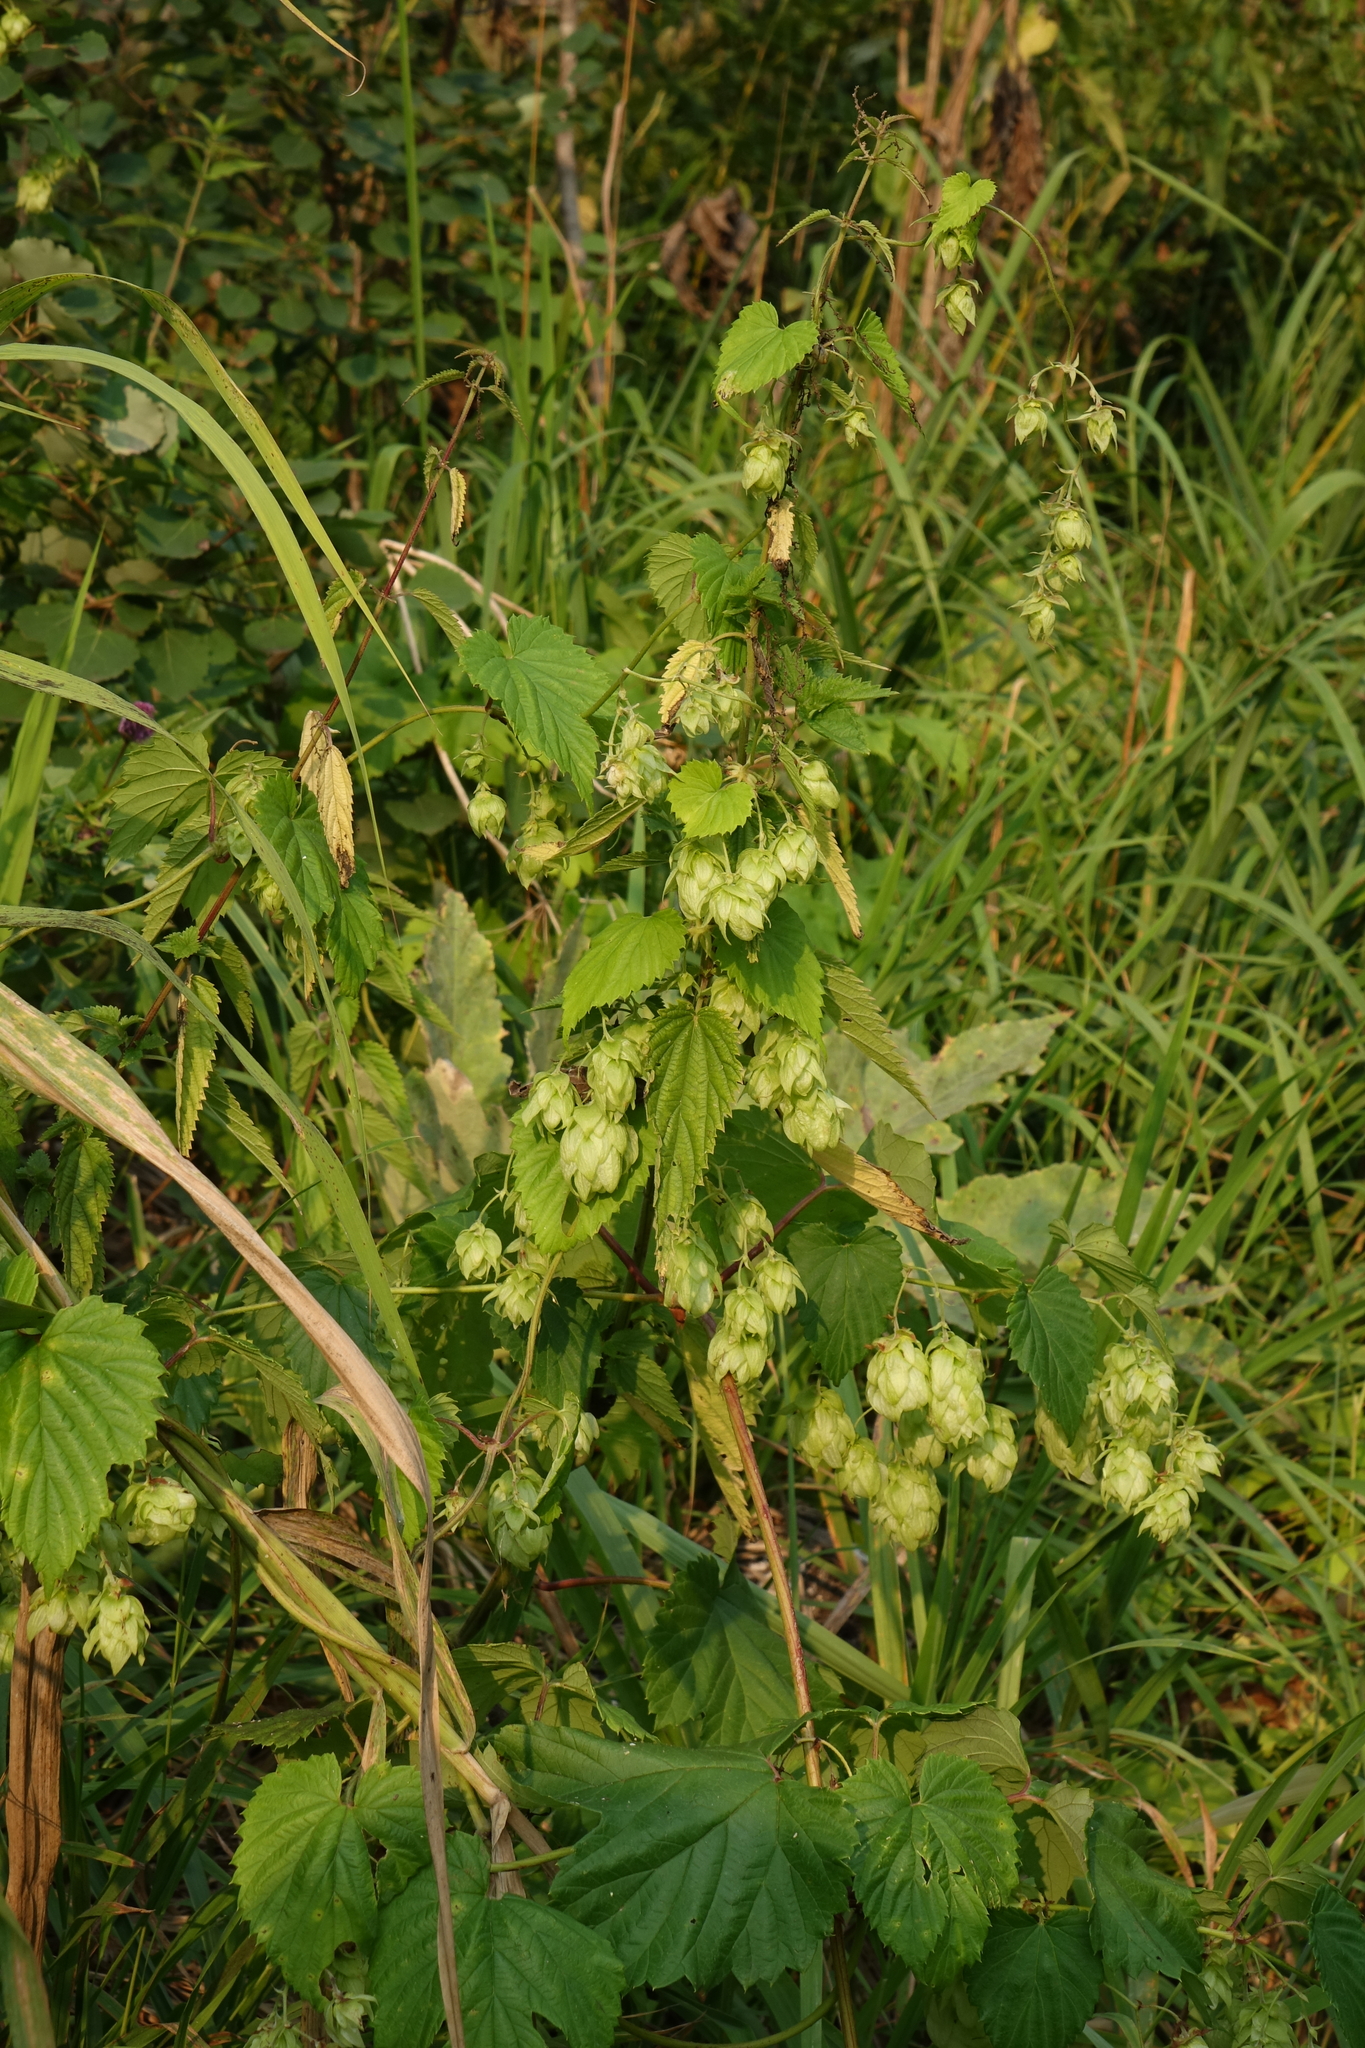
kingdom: Plantae
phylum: Tracheophyta
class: Magnoliopsida
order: Rosales
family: Cannabaceae
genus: Humulus
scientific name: Humulus lupulus
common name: Hop
